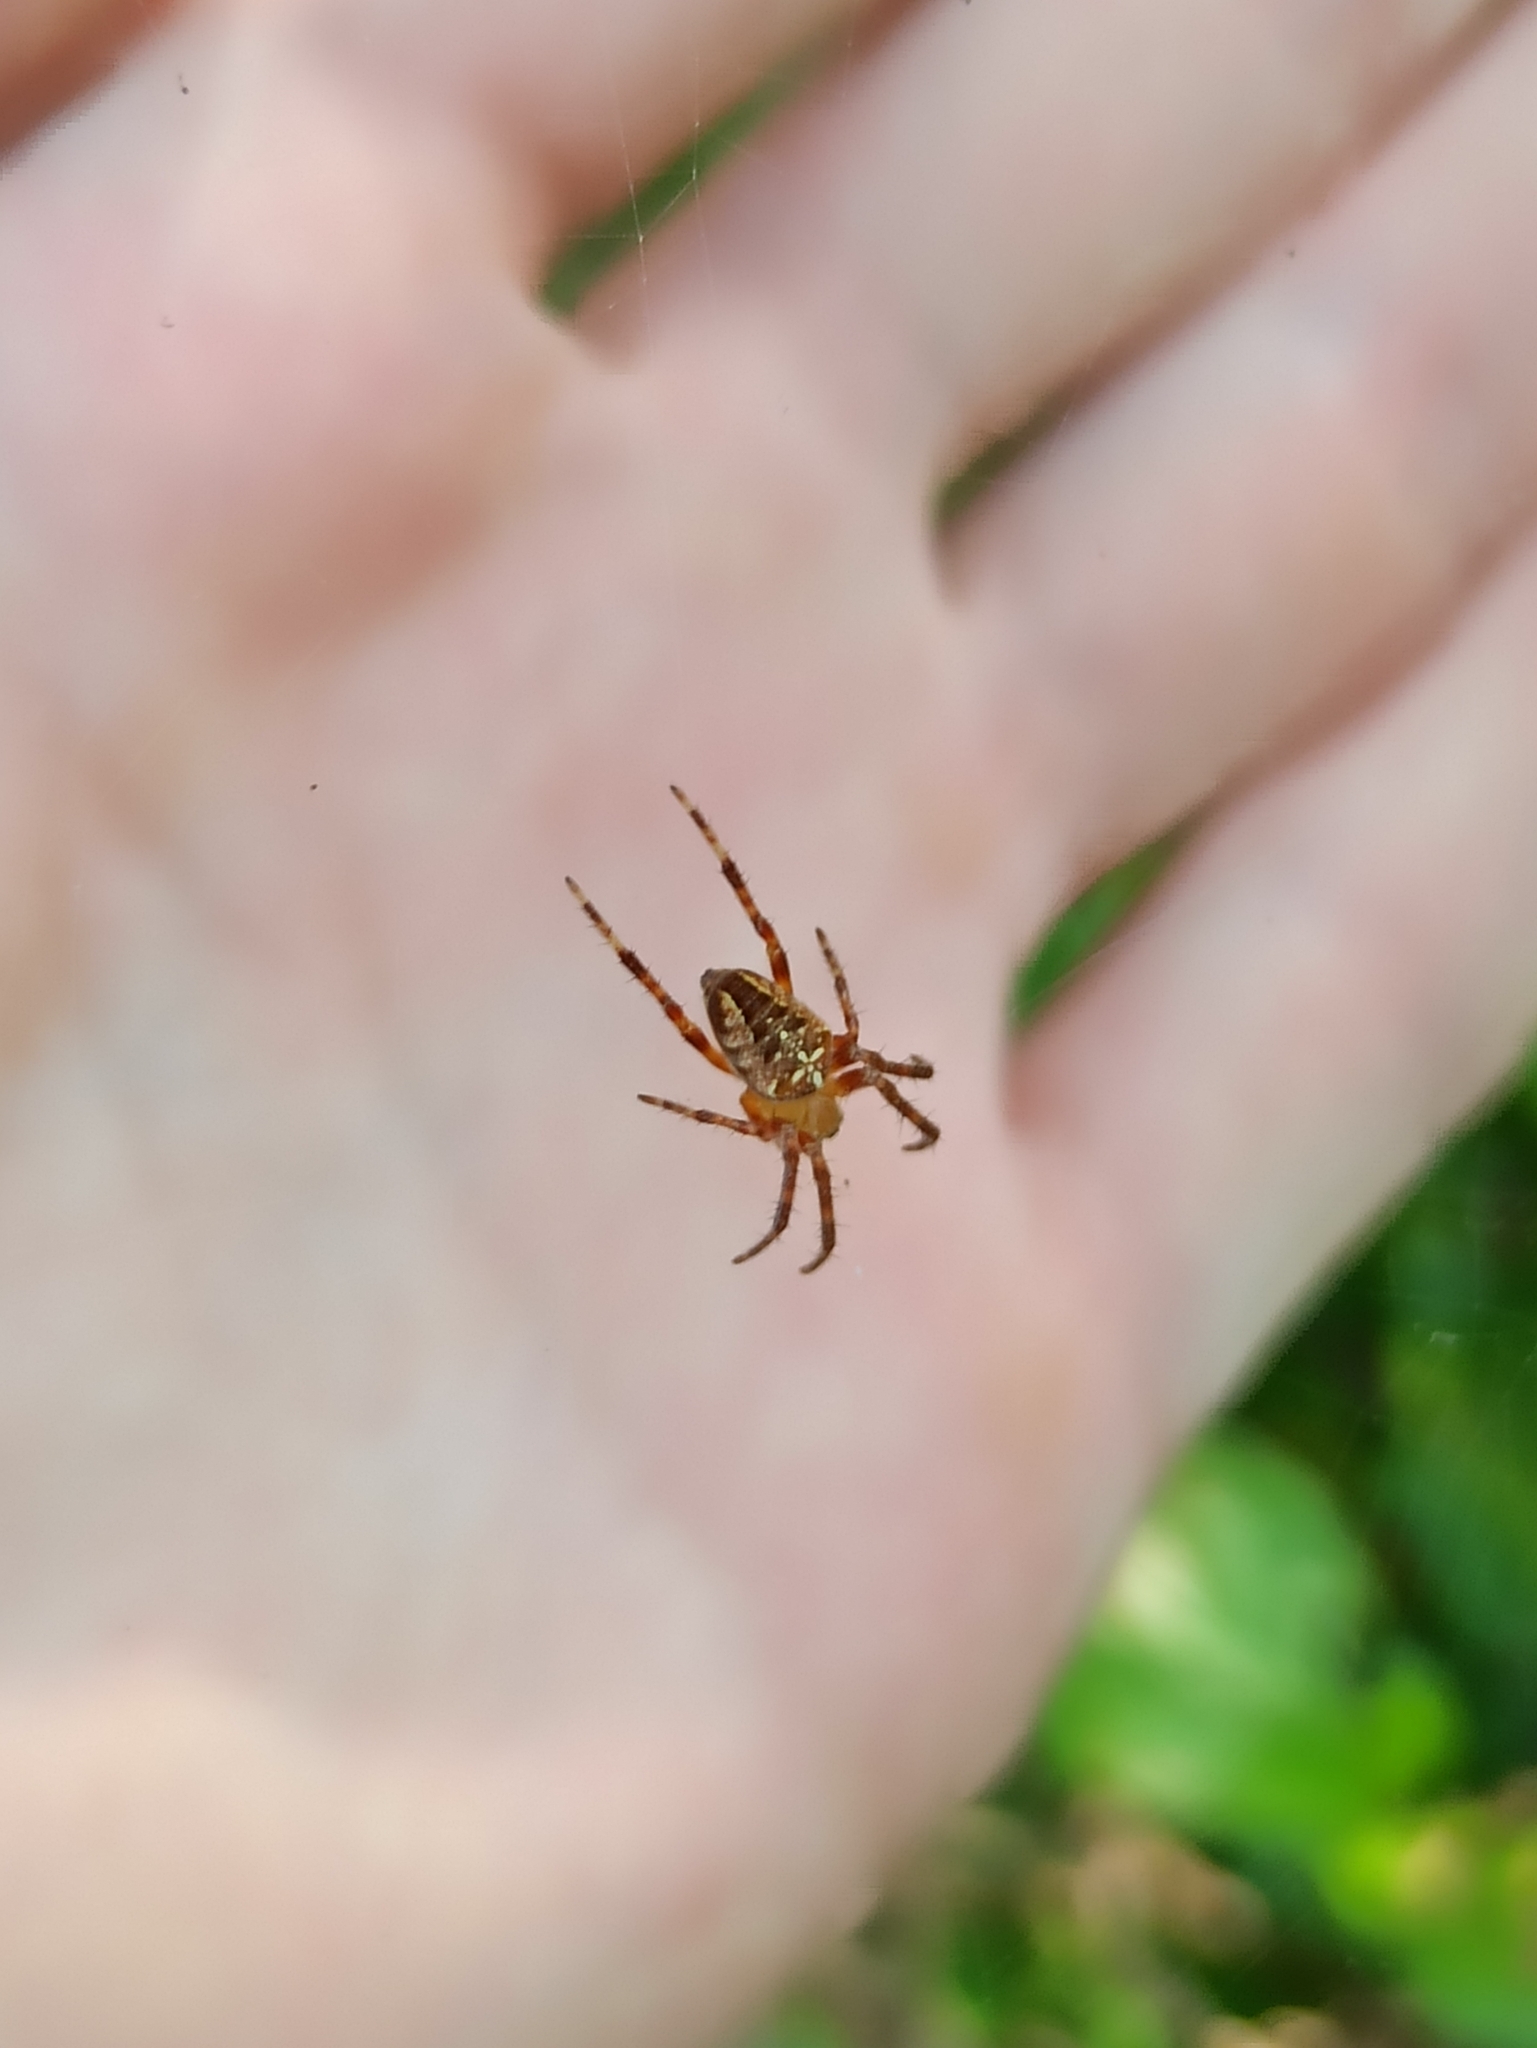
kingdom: Animalia
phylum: Arthropoda
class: Arachnida
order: Araneae
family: Araneidae
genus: Araneus
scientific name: Araneus diadematus
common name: Cross orbweaver
